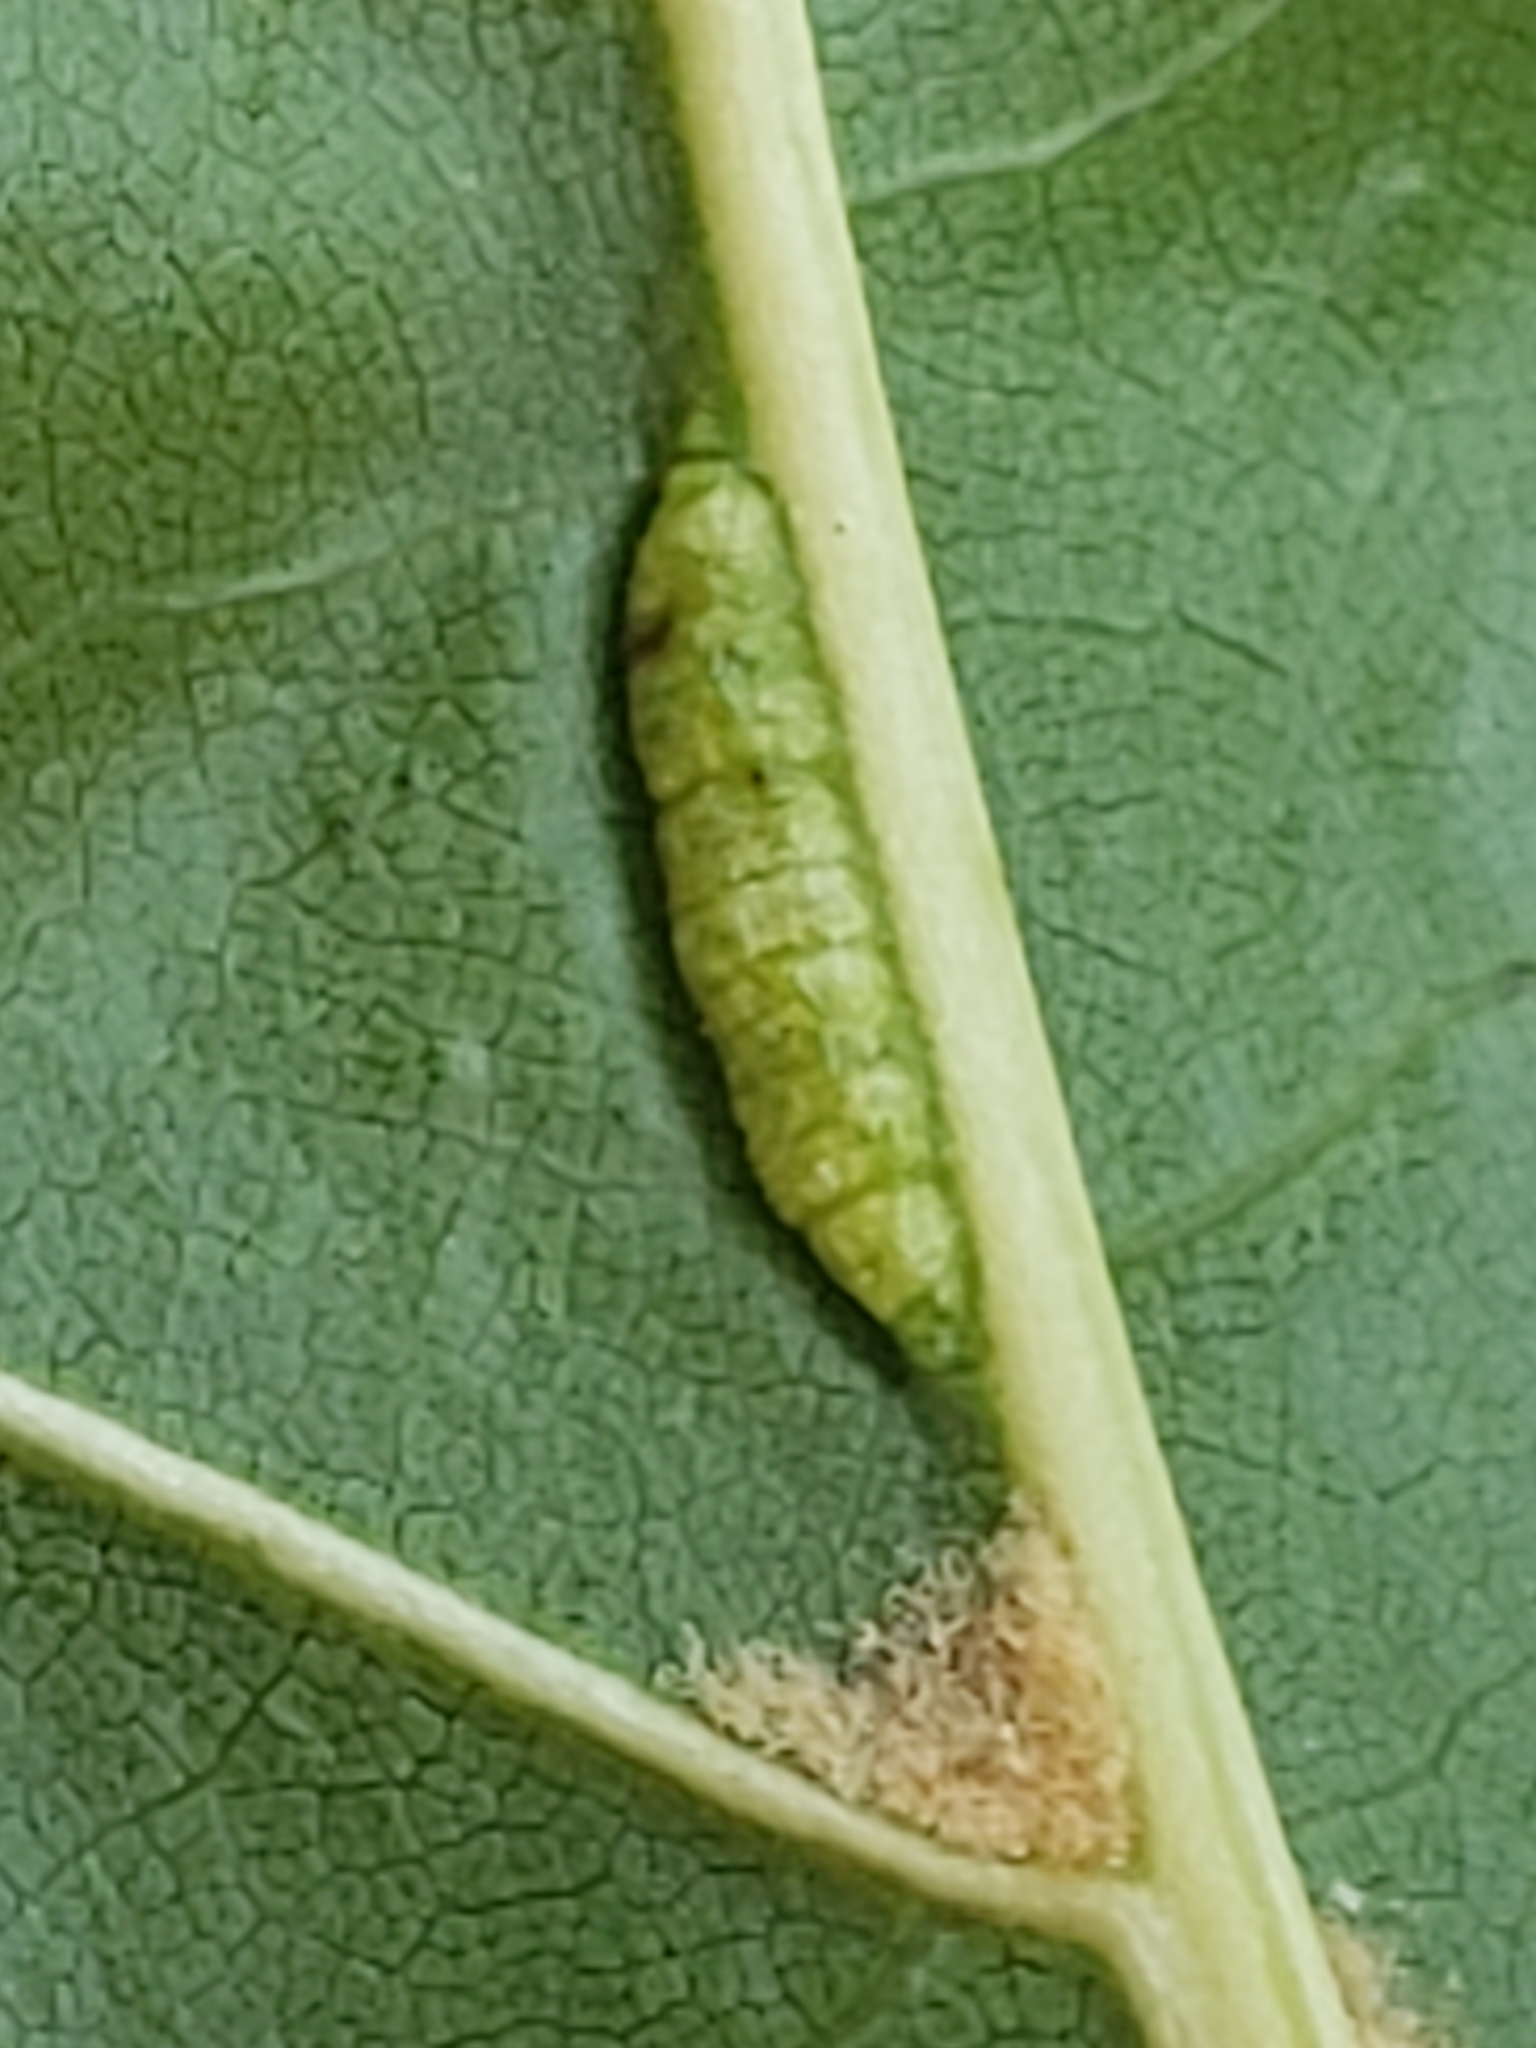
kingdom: Animalia
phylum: Arthropoda
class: Insecta
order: Diptera
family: Cecidomyiidae
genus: Macrodiplosis
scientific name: Macrodiplosis q-orucum
